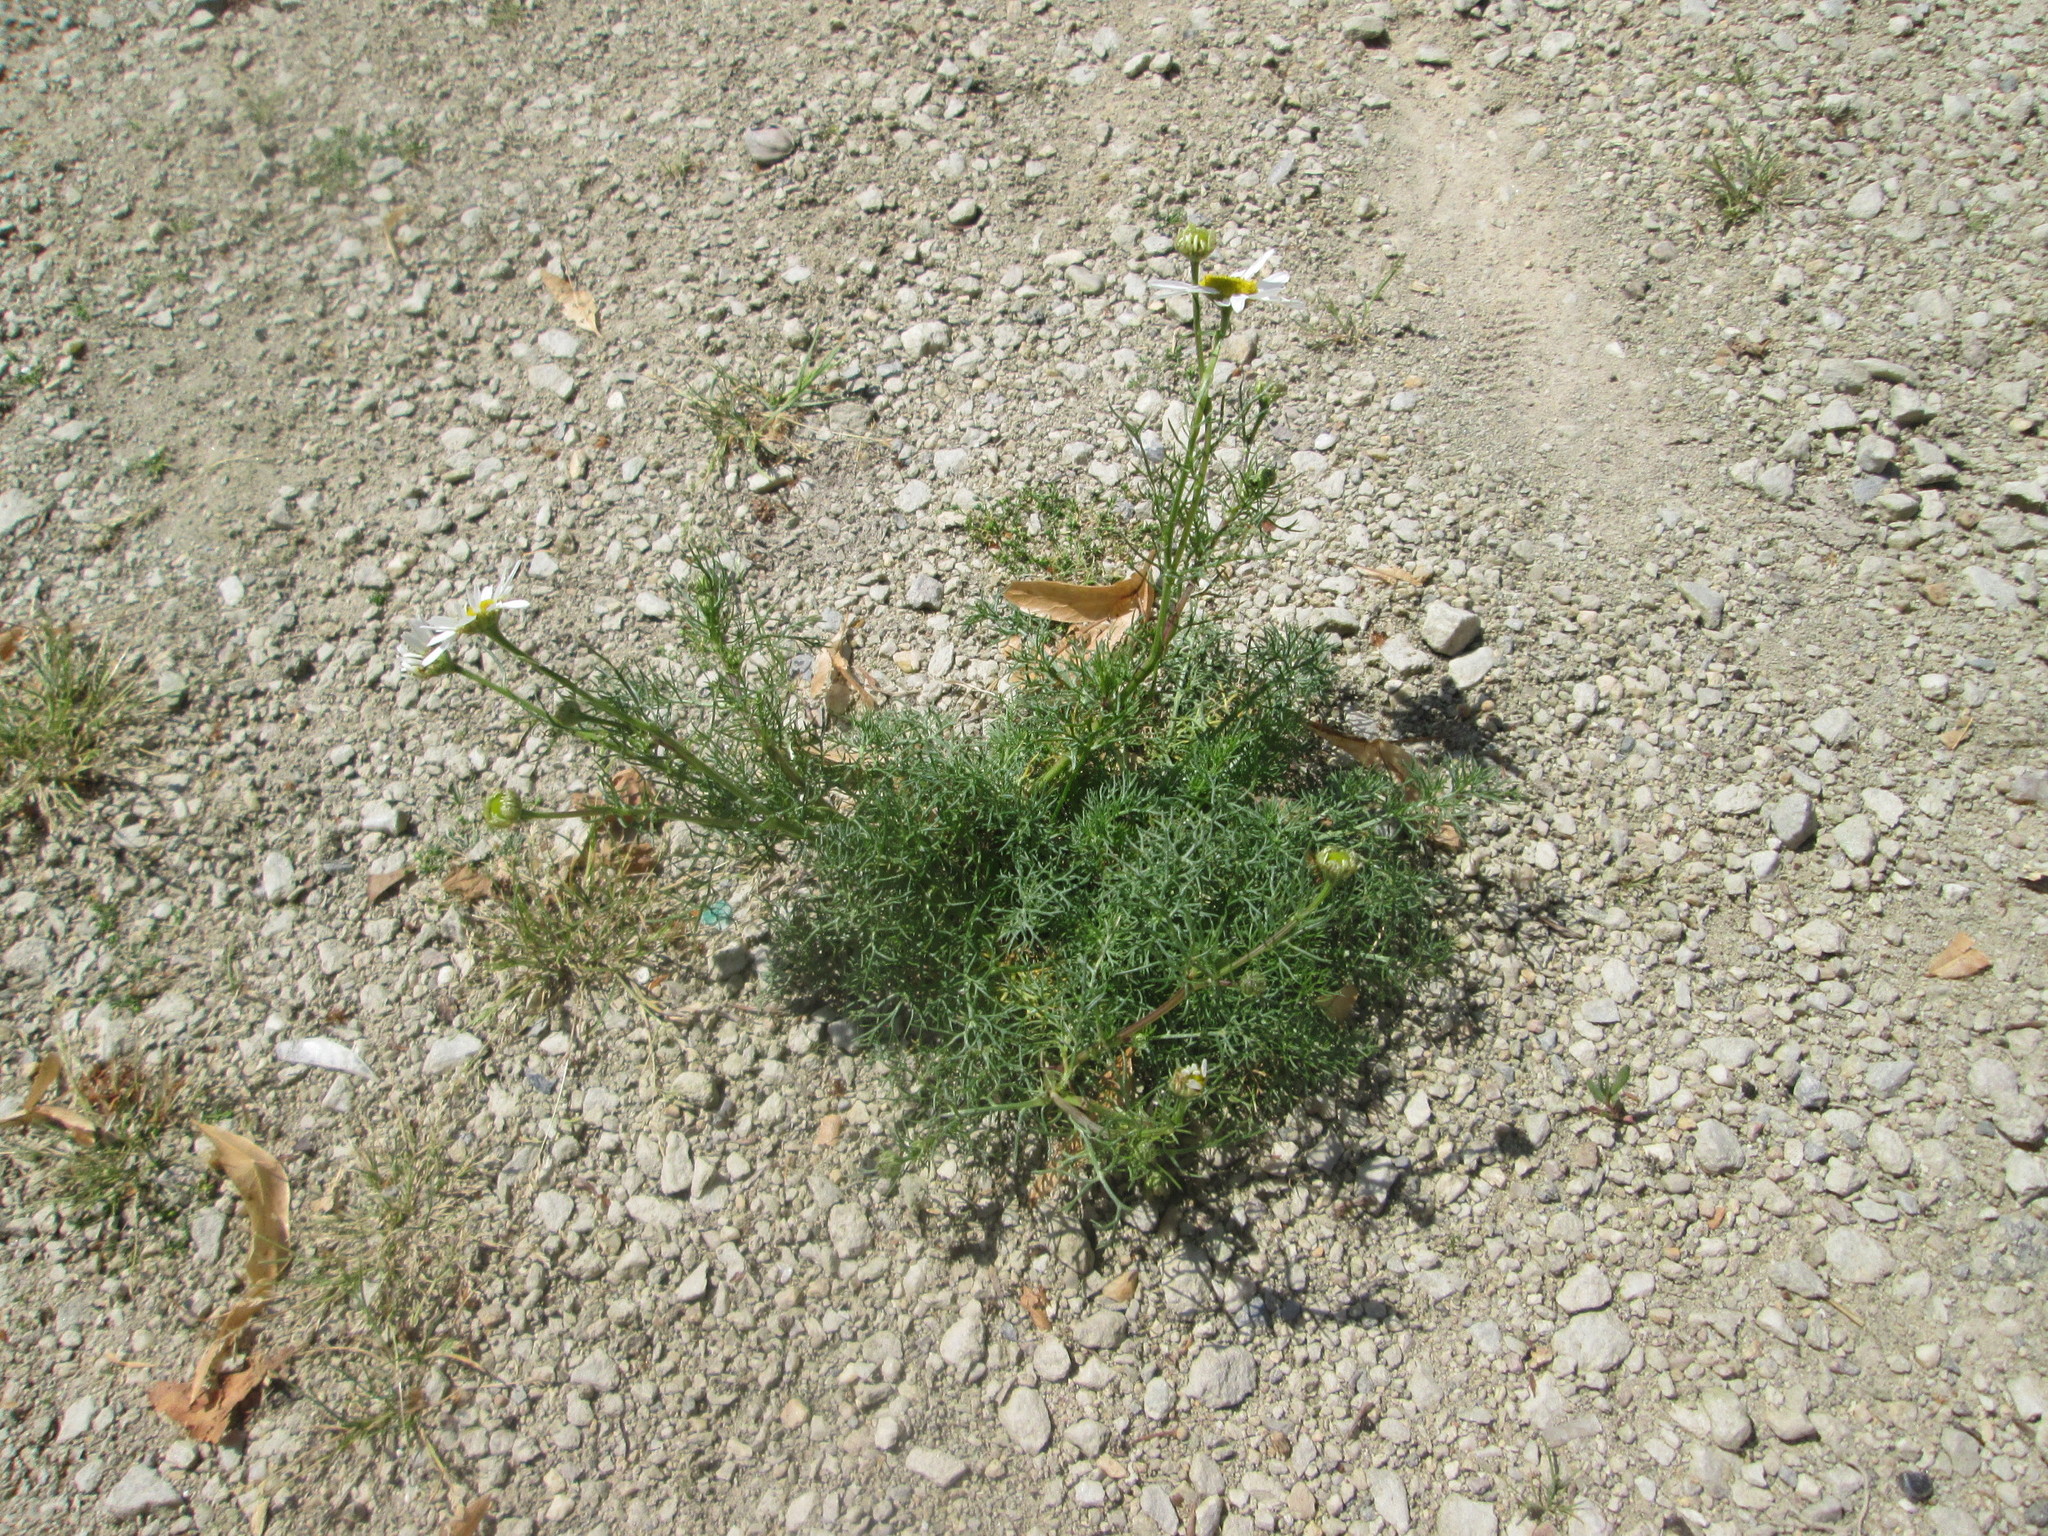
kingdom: Plantae
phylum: Tracheophyta
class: Magnoliopsida
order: Asterales
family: Asteraceae
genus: Tripleurospermum
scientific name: Tripleurospermum inodorum
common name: Scentless mayweed
